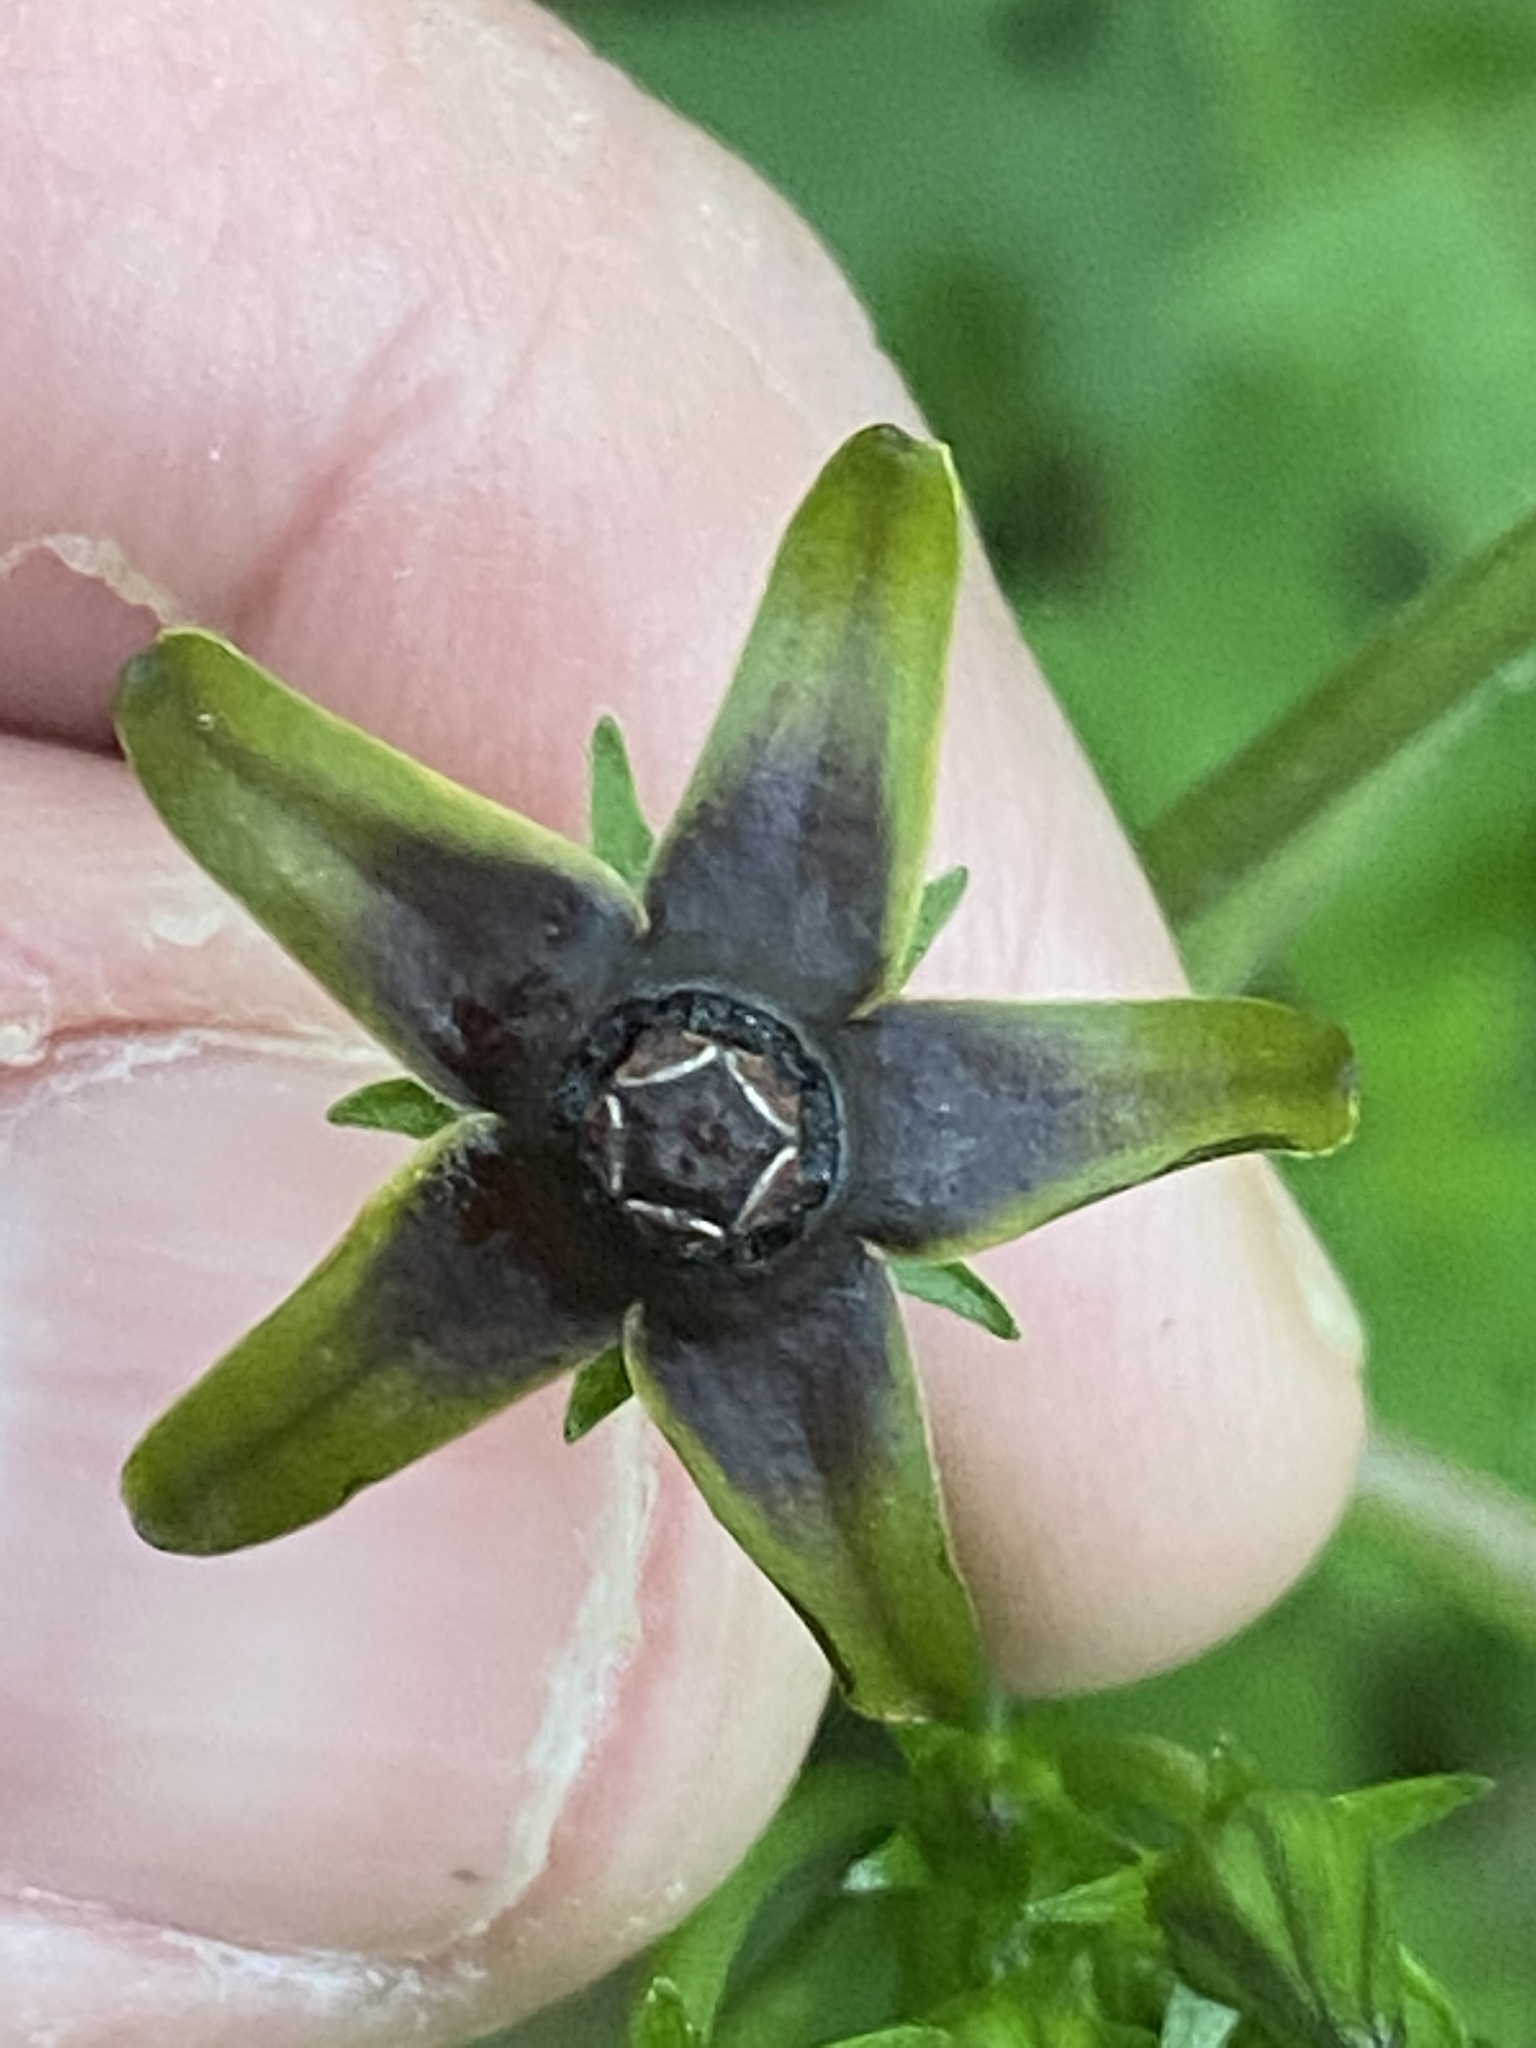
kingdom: Plantae
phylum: Tracheophyta
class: Magnoliopsida
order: Gentianales
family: Apocynaceae
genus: Gonolobus
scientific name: Gonolobus suberosus
